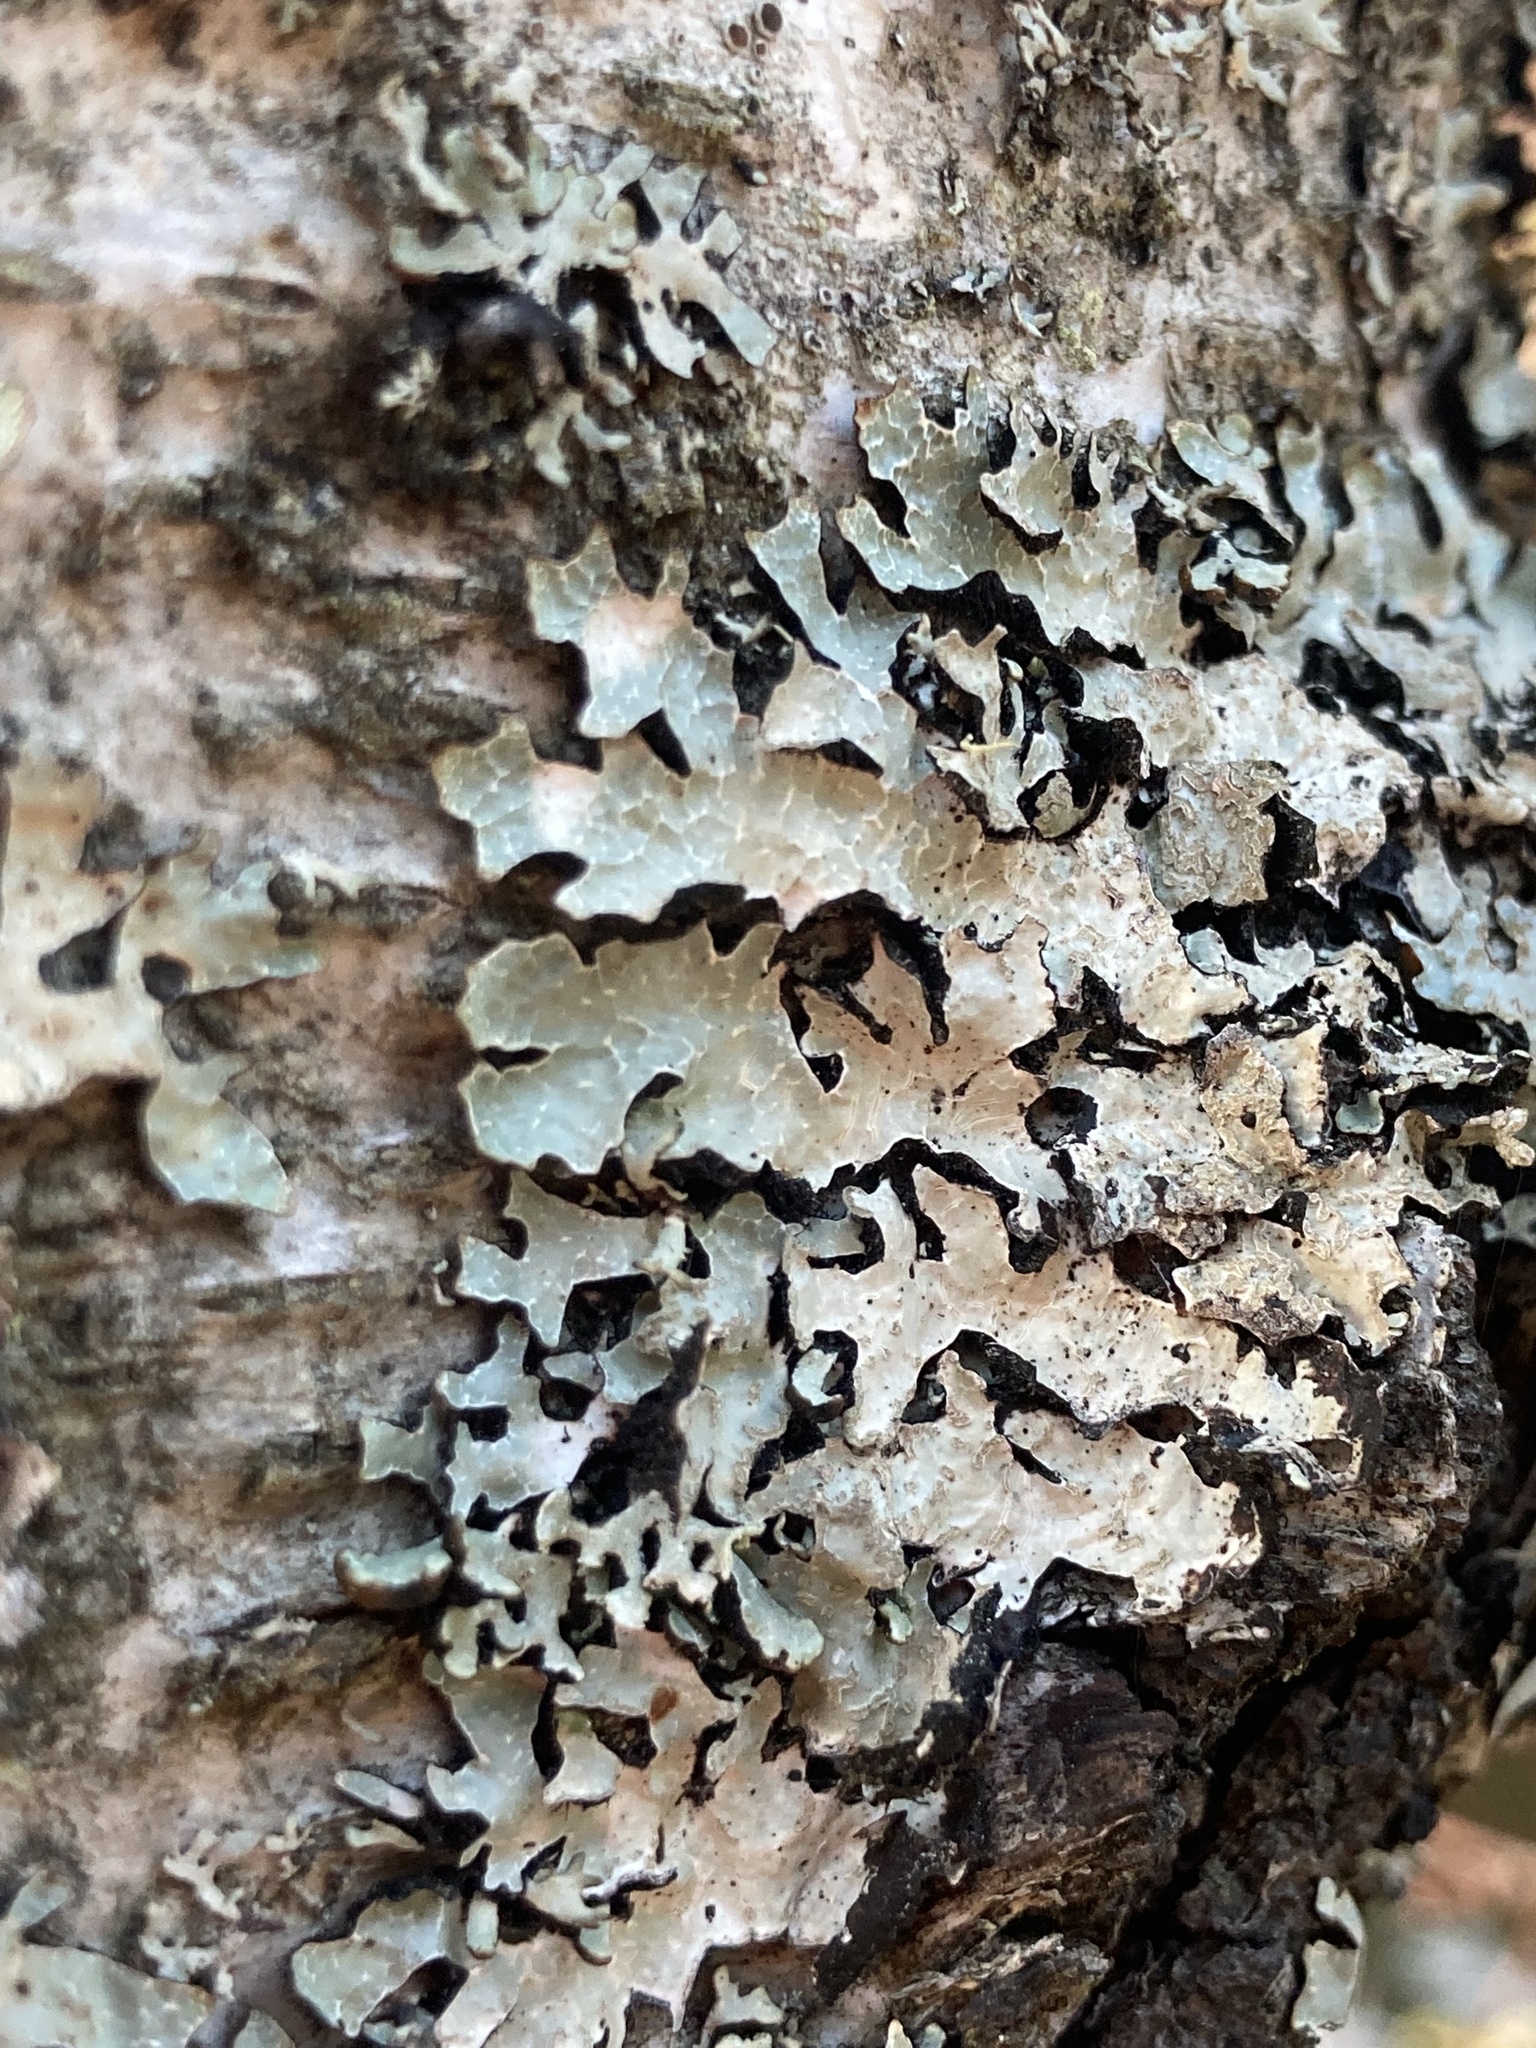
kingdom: Fungi
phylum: Ascomycota
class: Lecanoromycetes
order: Lecanorales
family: Parmeliaceae
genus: Parmelia
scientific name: Parmelia sulcata
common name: Netted shield lichen
